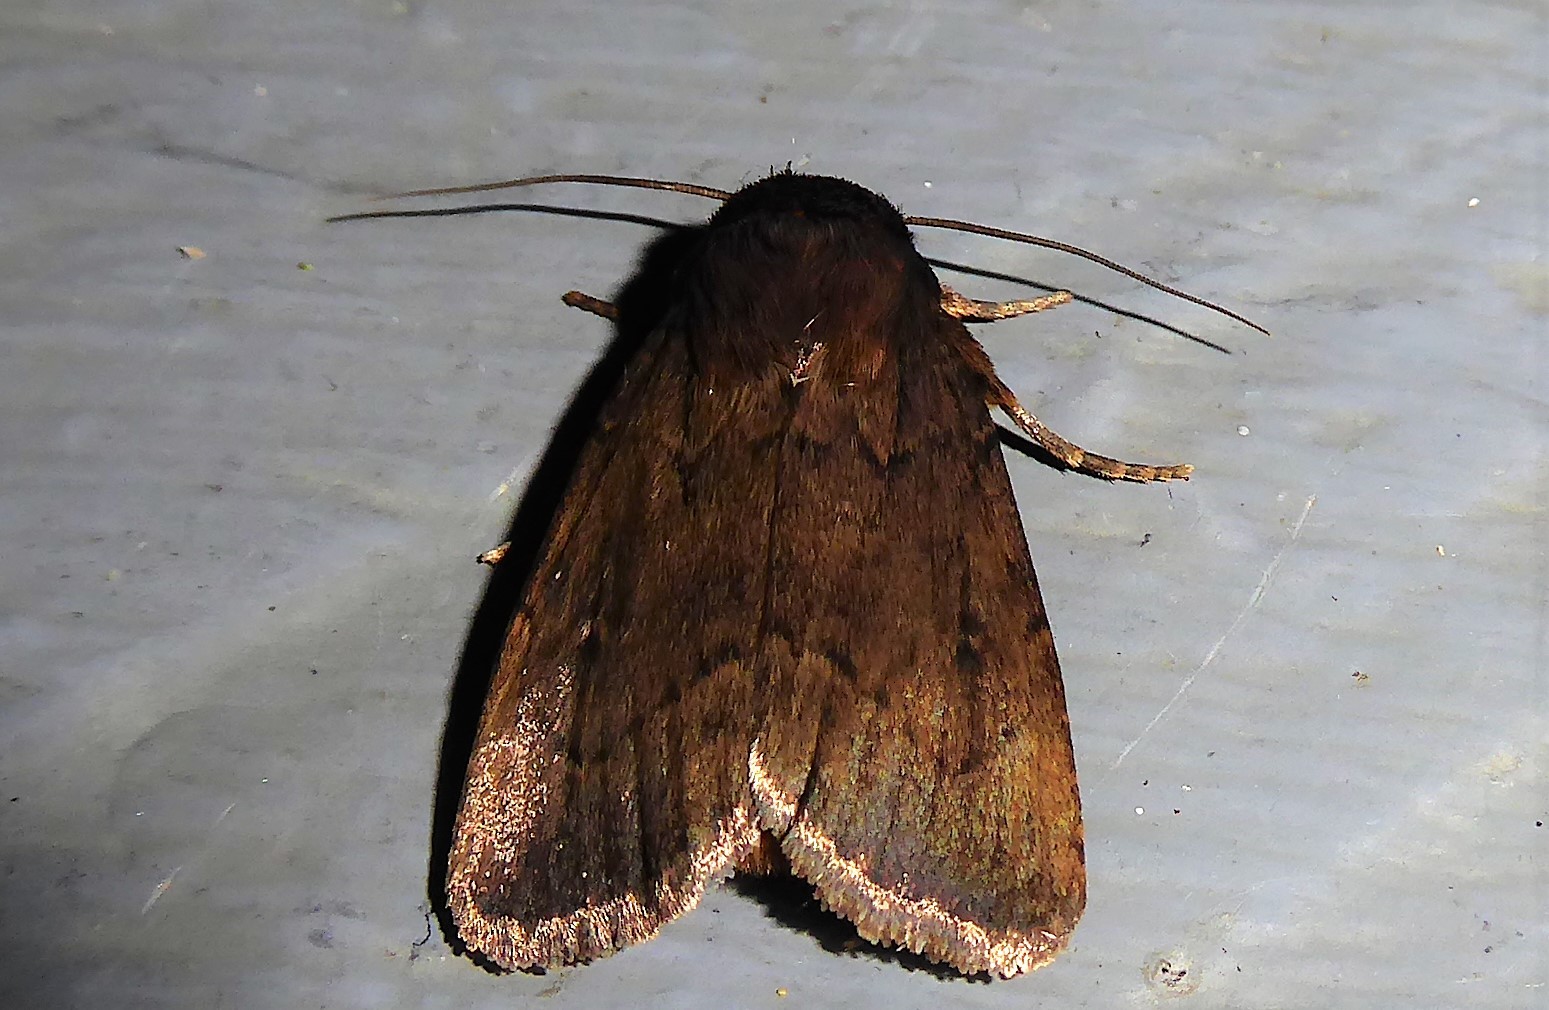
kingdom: Animalia
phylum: Arthropoda
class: Insecta
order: Lepidoptera
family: Noctuidae
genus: Bityla
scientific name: Bityla defigurata
